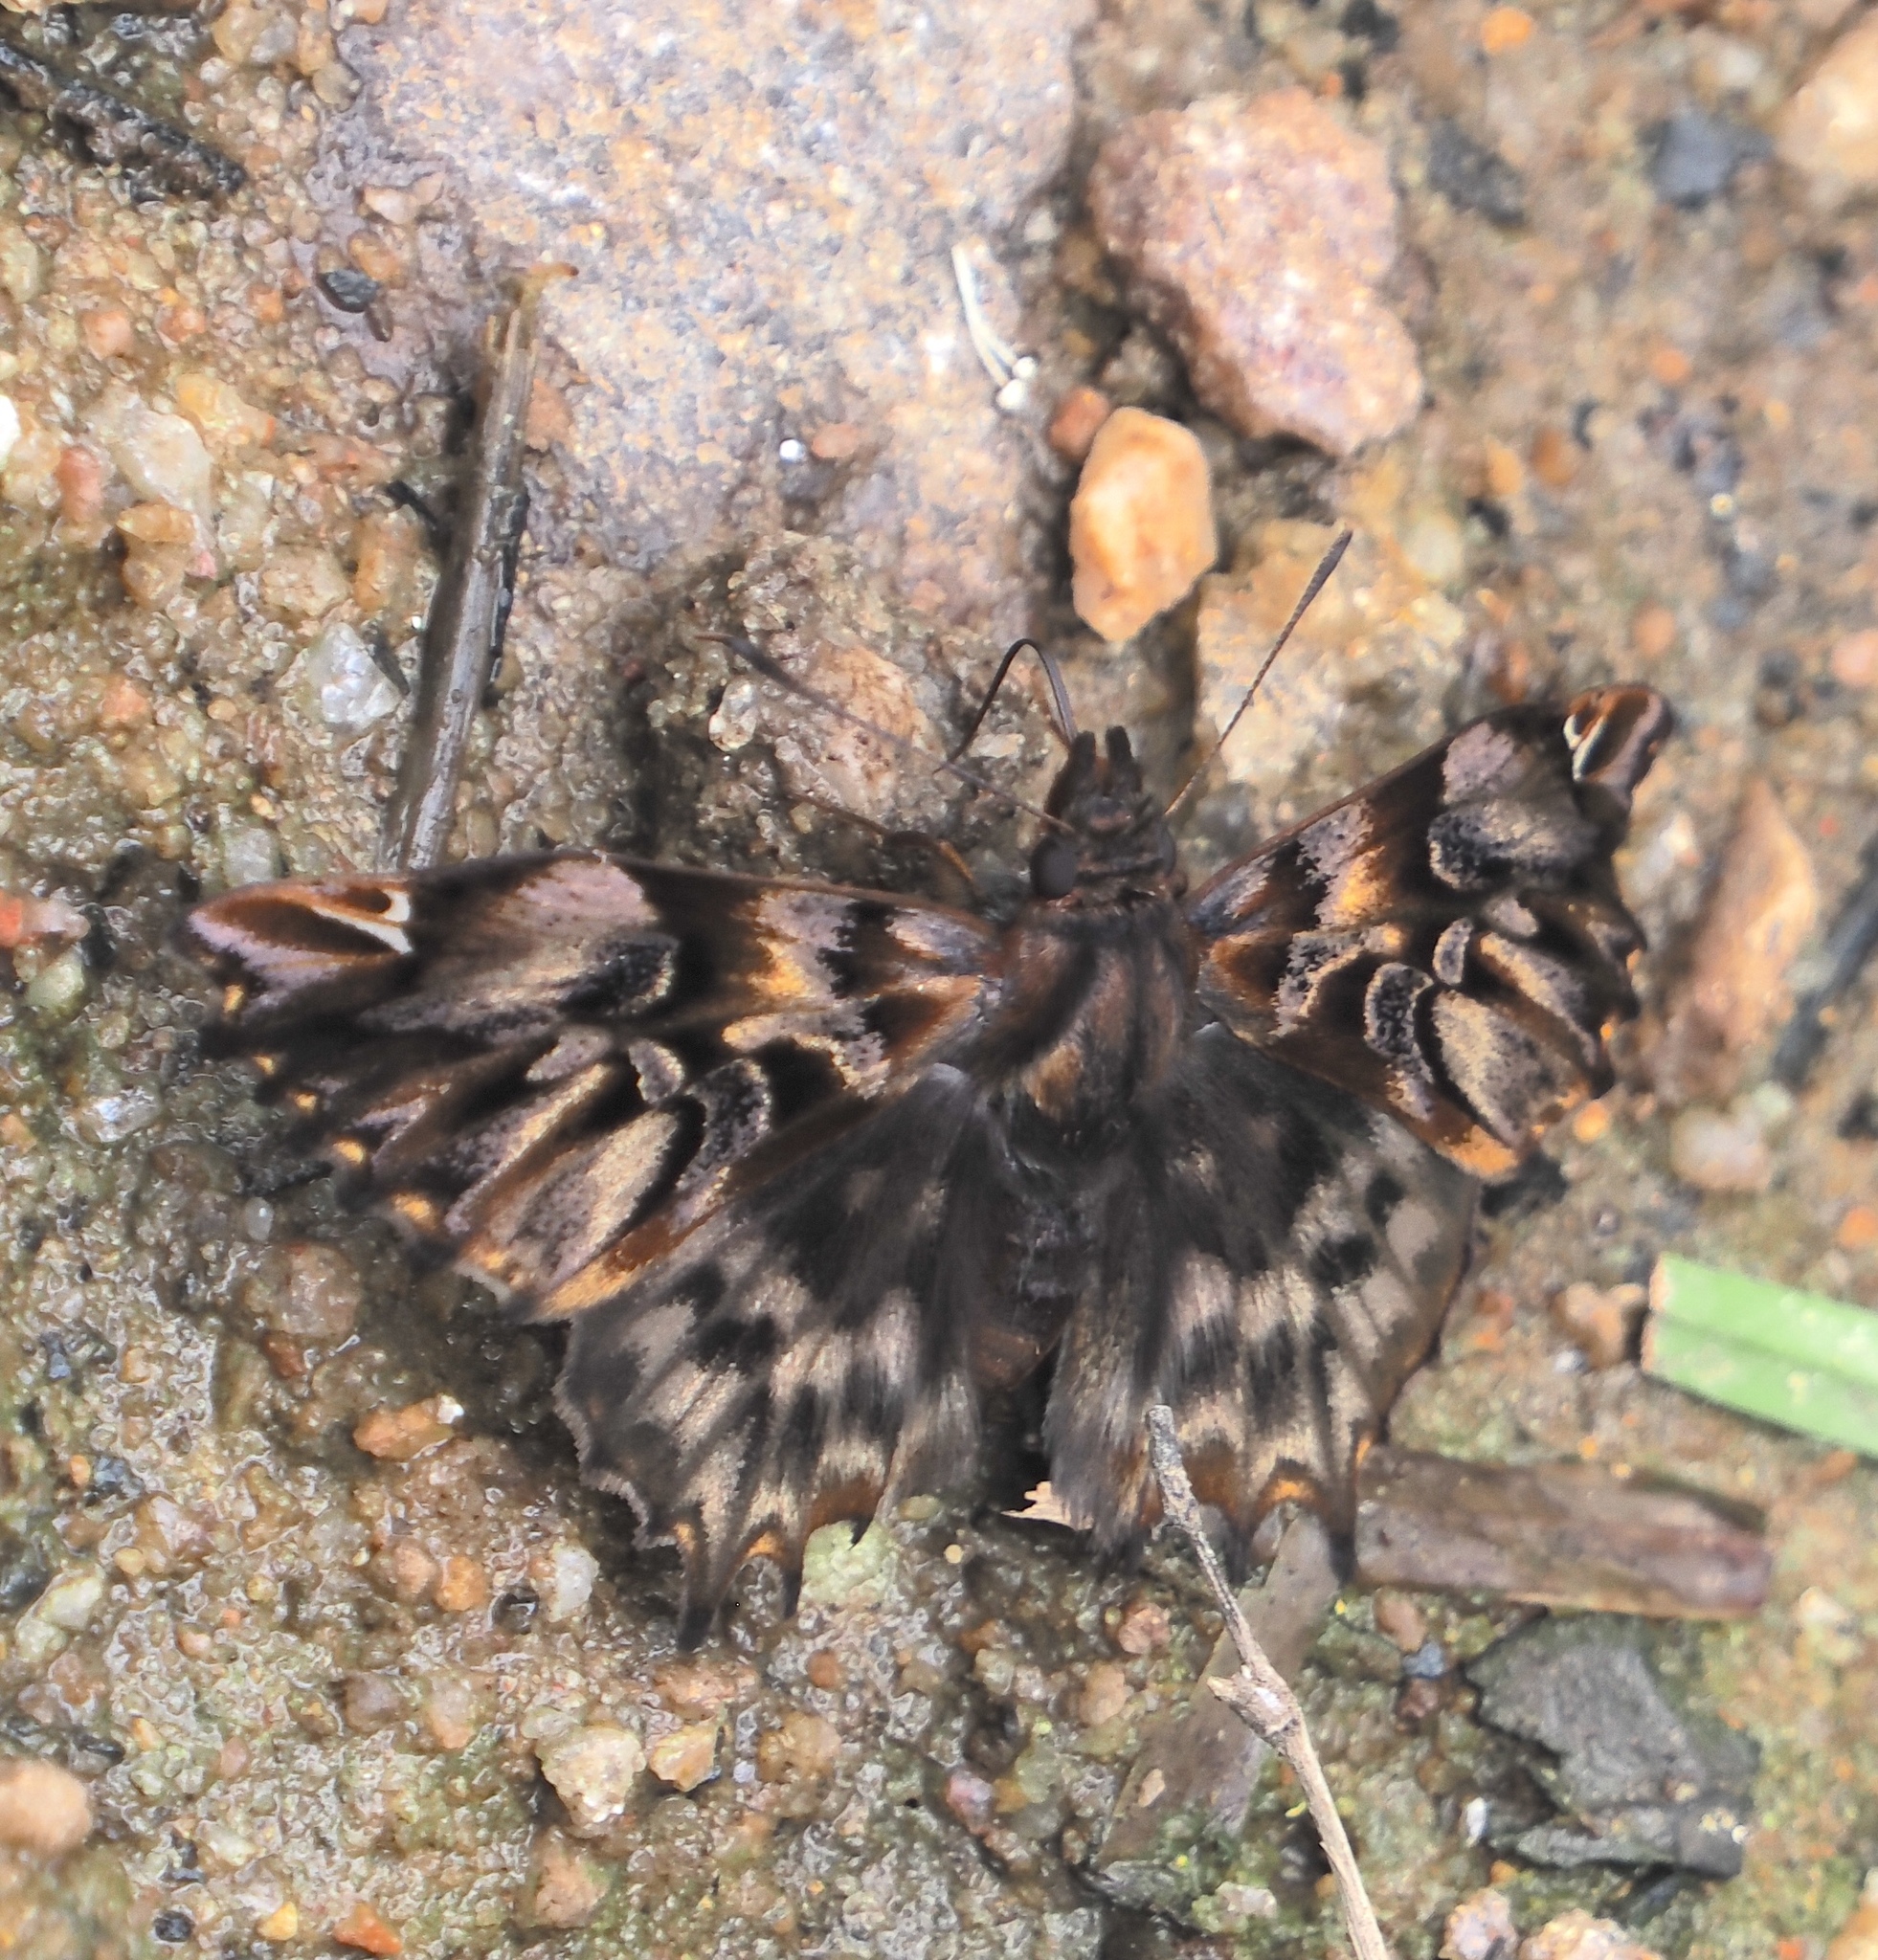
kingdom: Animalia
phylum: Arthropoda
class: Insecta
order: Lepidoptera
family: Hesperiidae
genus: Noctuana
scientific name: Noctuana diurna
